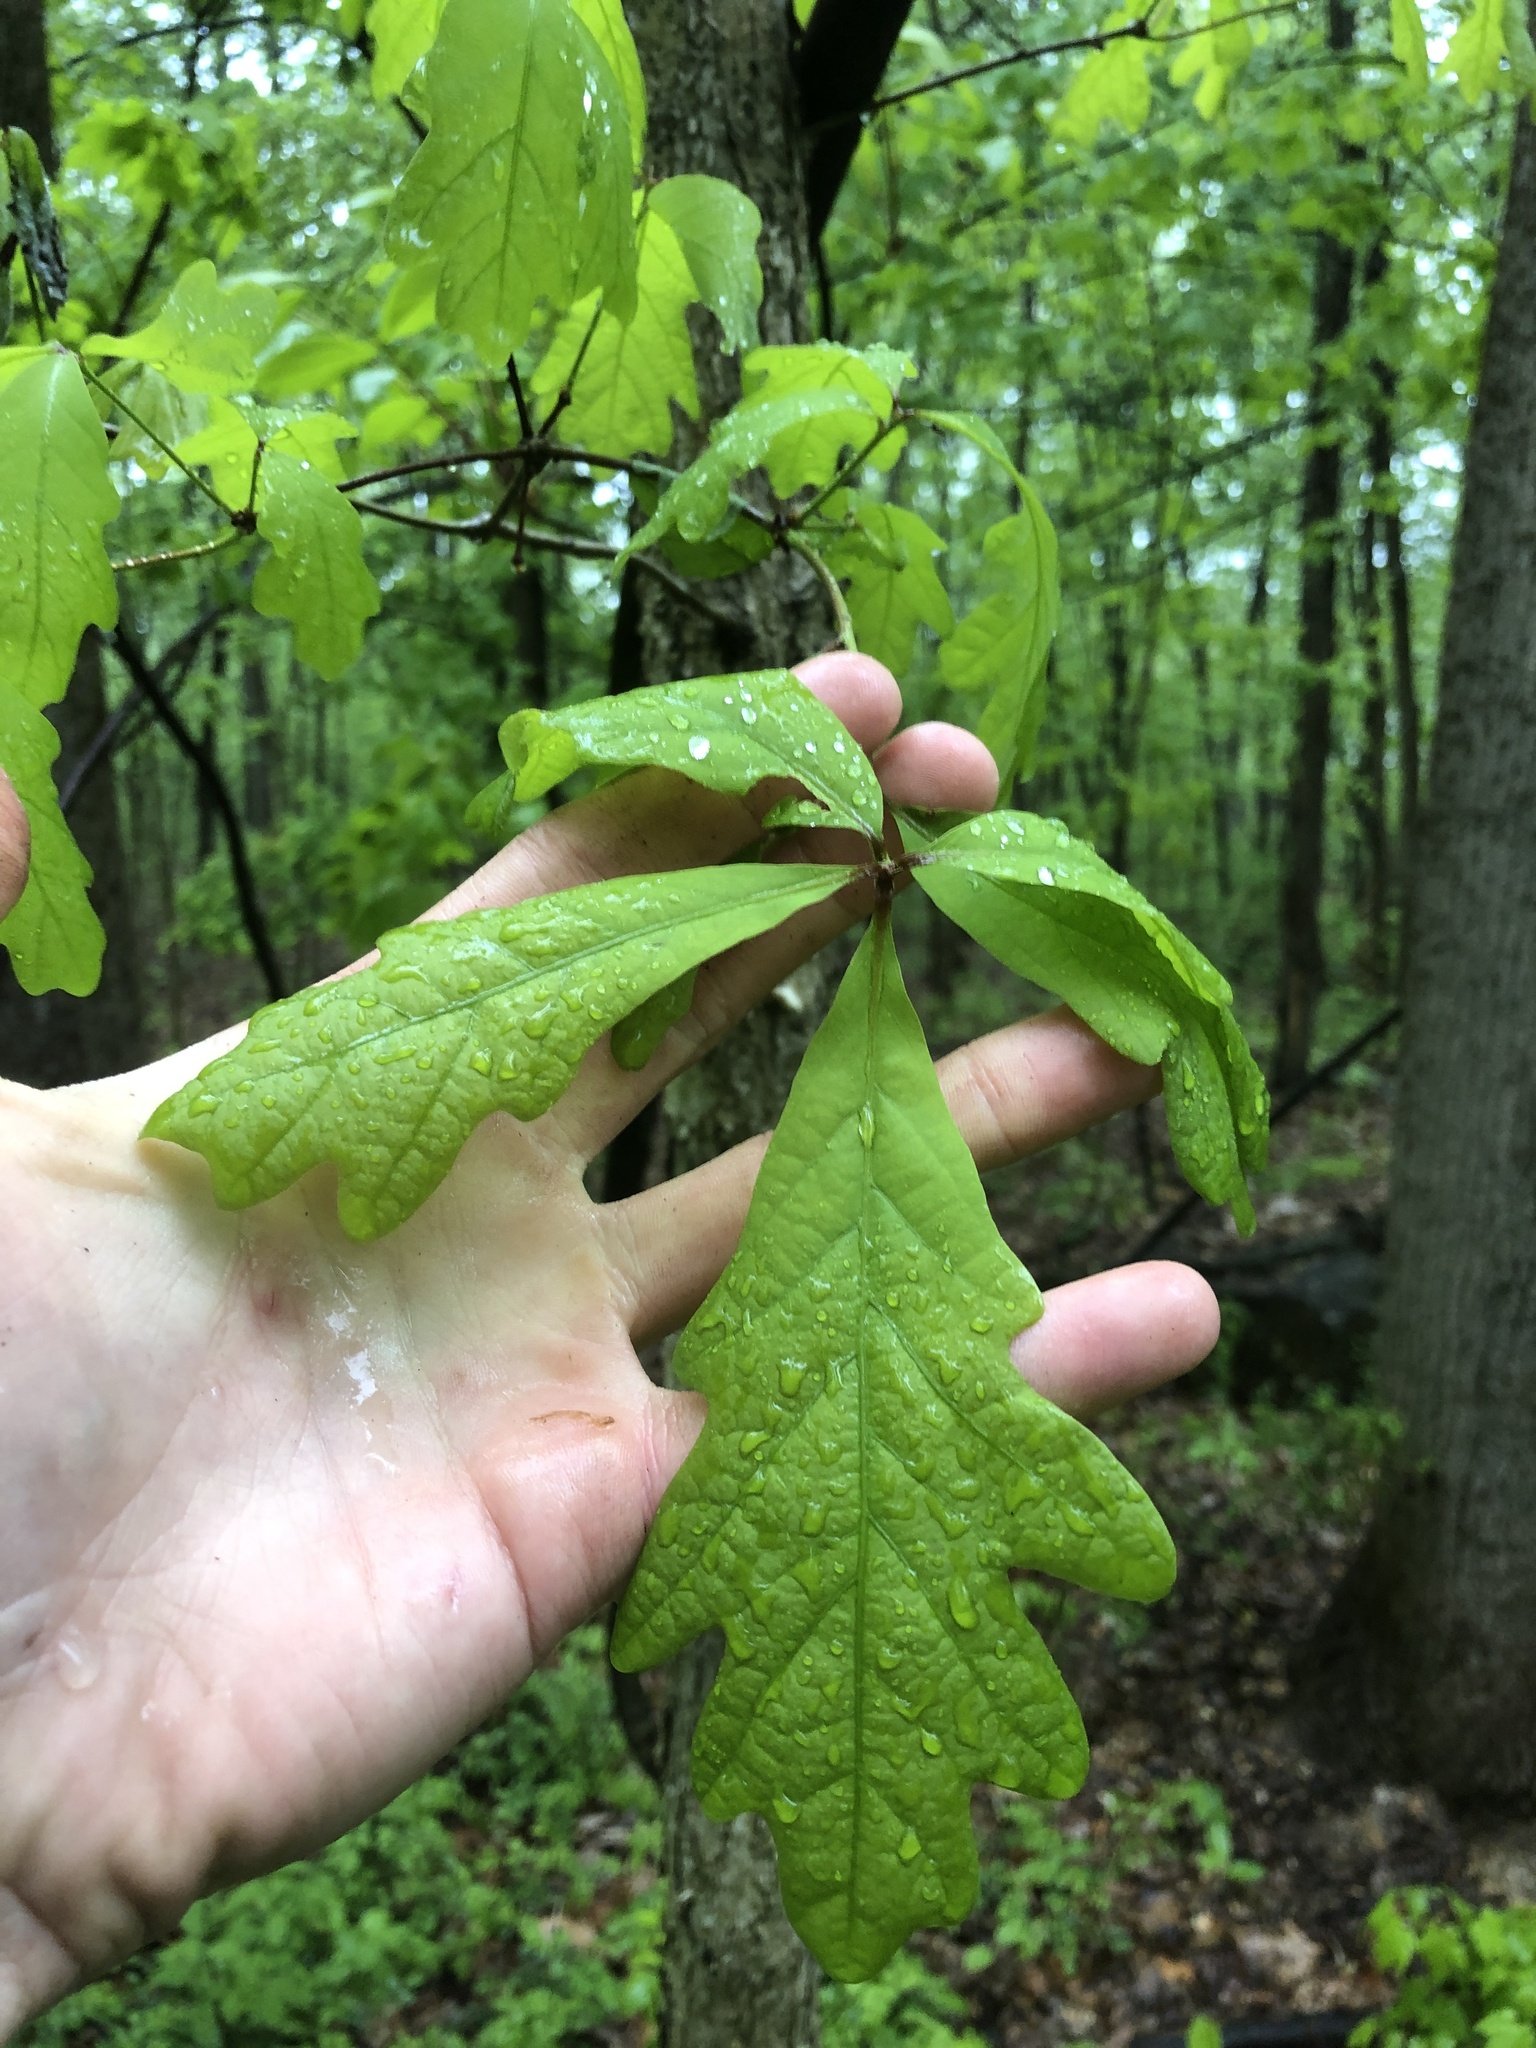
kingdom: Plantae
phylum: Tracheophyta
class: Magnoliopsida
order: Fagales
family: Fagaceae
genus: Quercus
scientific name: Quercus alba
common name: White oak
